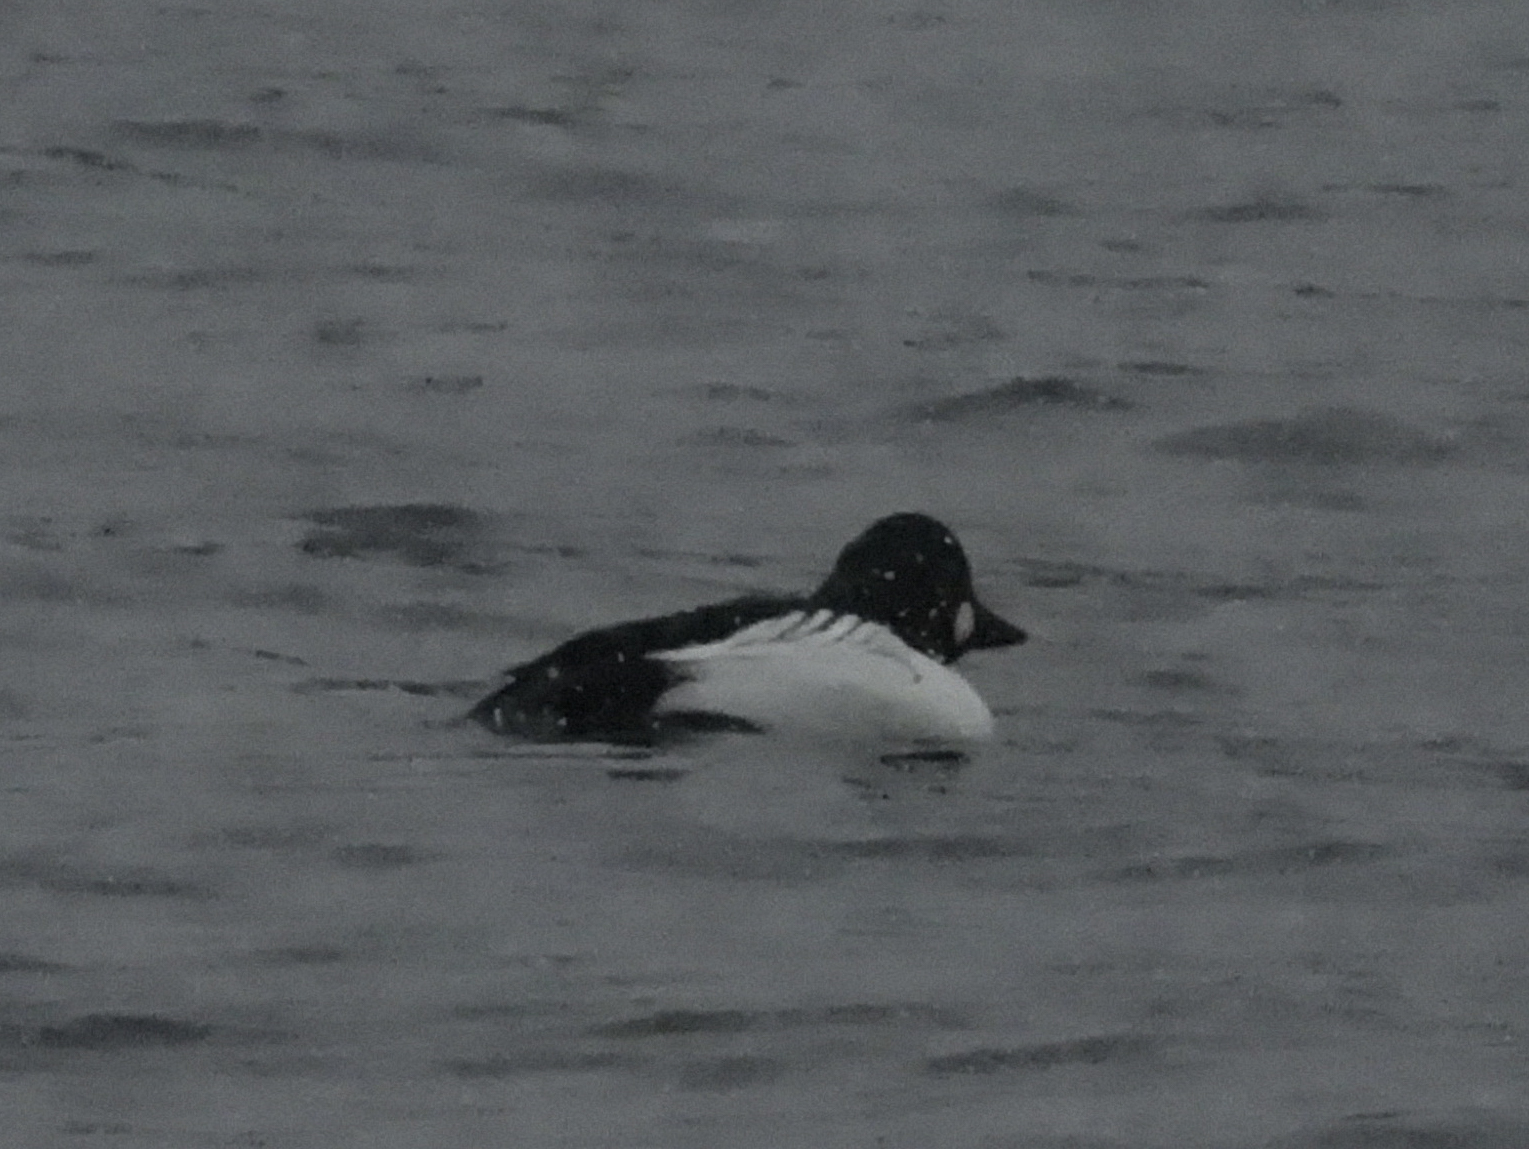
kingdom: Animalia
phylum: Chordata
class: Aves
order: Anseriformes
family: Anatidae
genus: Bucephala
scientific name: Bucephala clangula
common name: Common goldeneye
